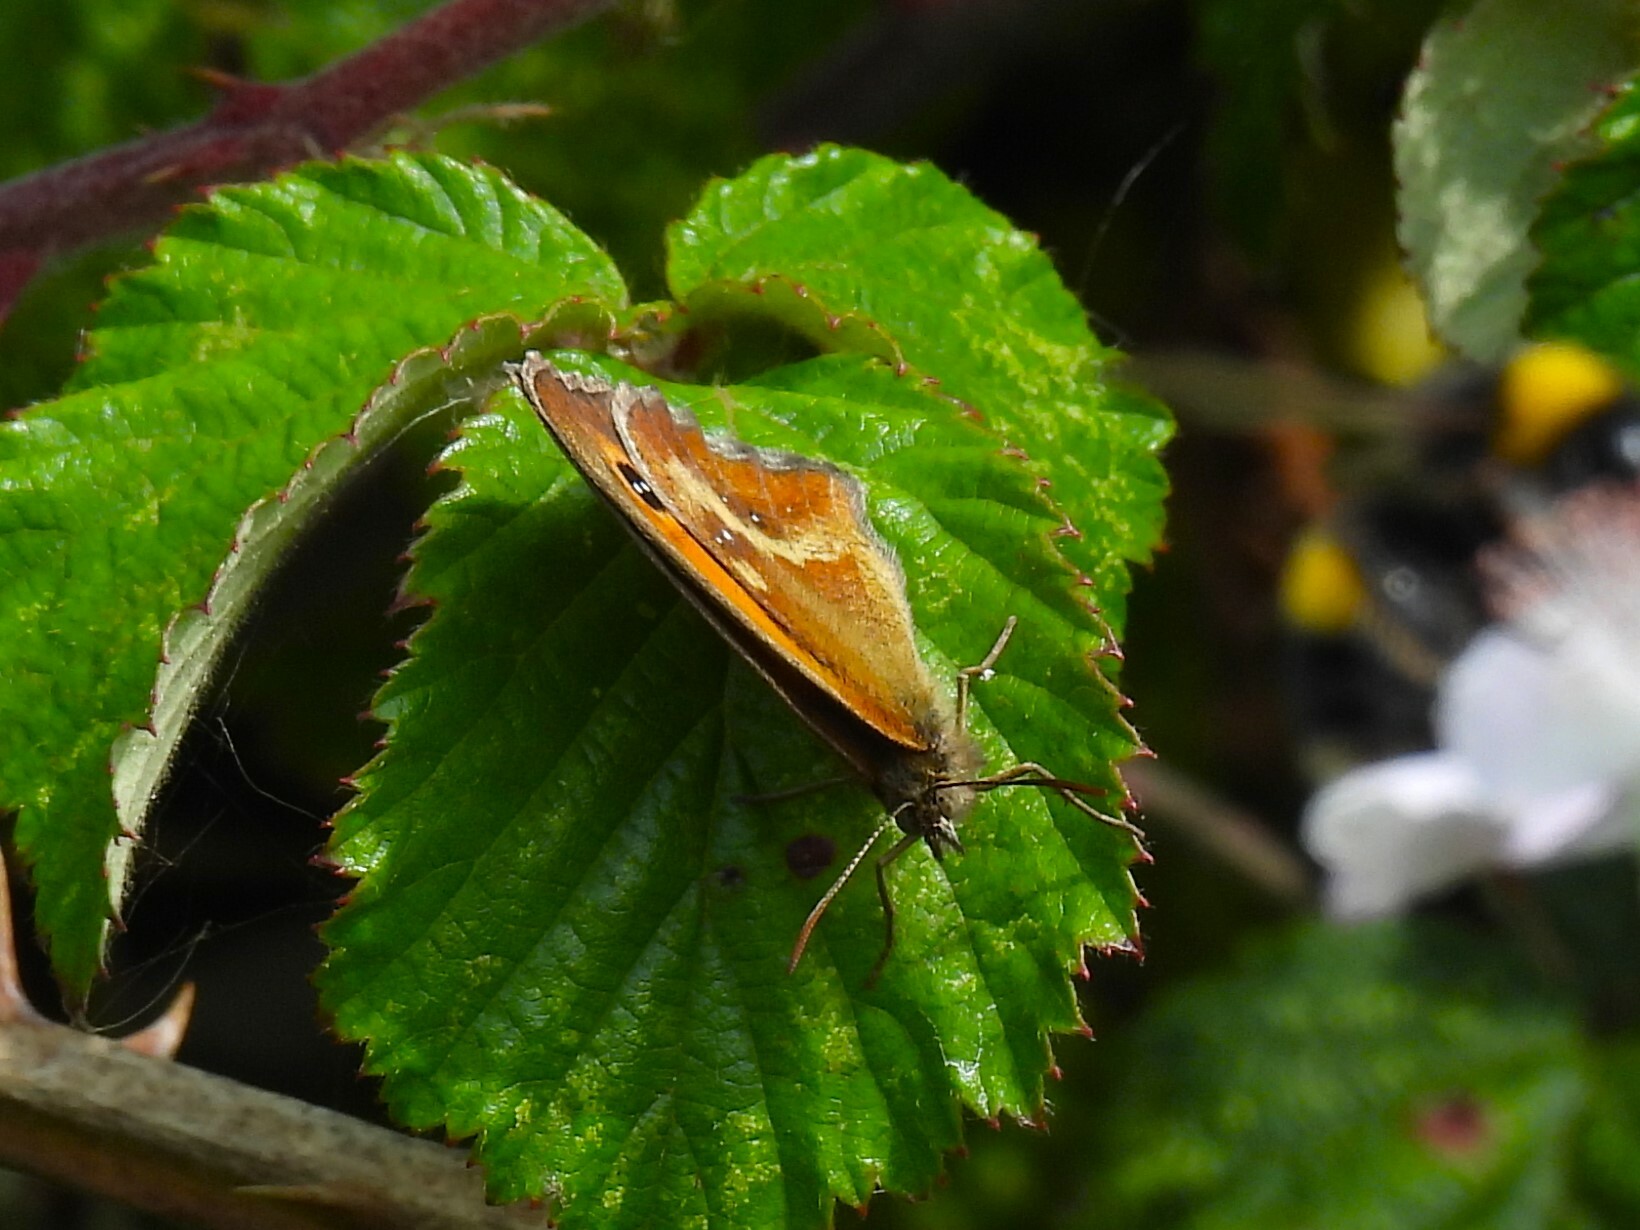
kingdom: Animalia
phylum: Arthropoda
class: Insecta
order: Lepidoptera
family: Nymphalidae
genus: Pyronia
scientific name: Pyronia tithonus
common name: Gatekeeper
